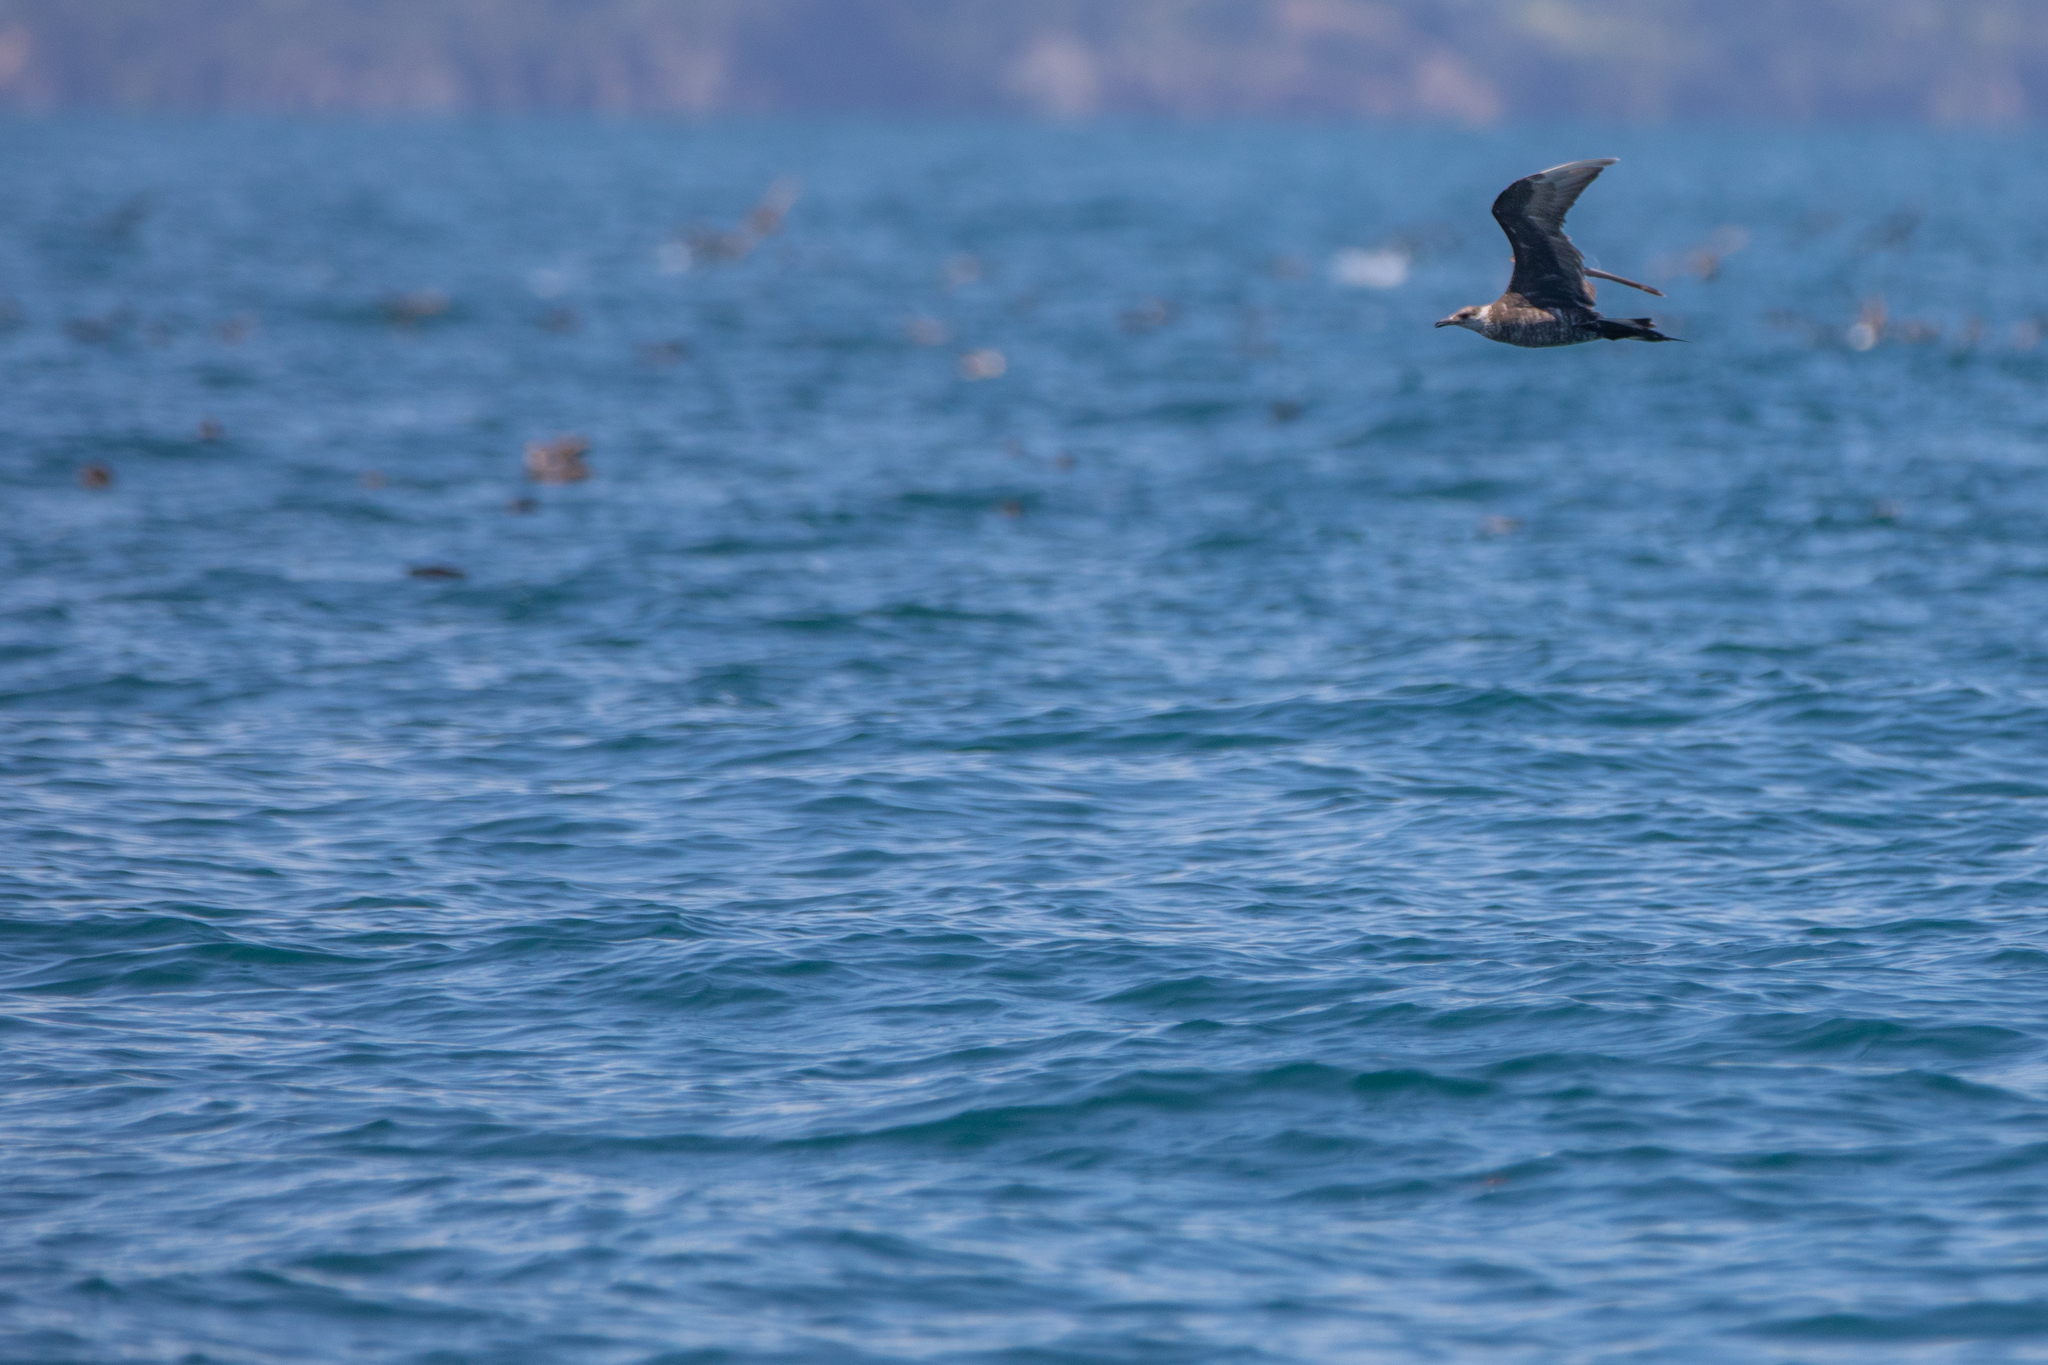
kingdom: Animalia
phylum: Chordata
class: Aves
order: Charadriiformes
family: Stercorariidae
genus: Stercorarius
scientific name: Stercorarius parasiticus
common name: Parasitic jaeger
